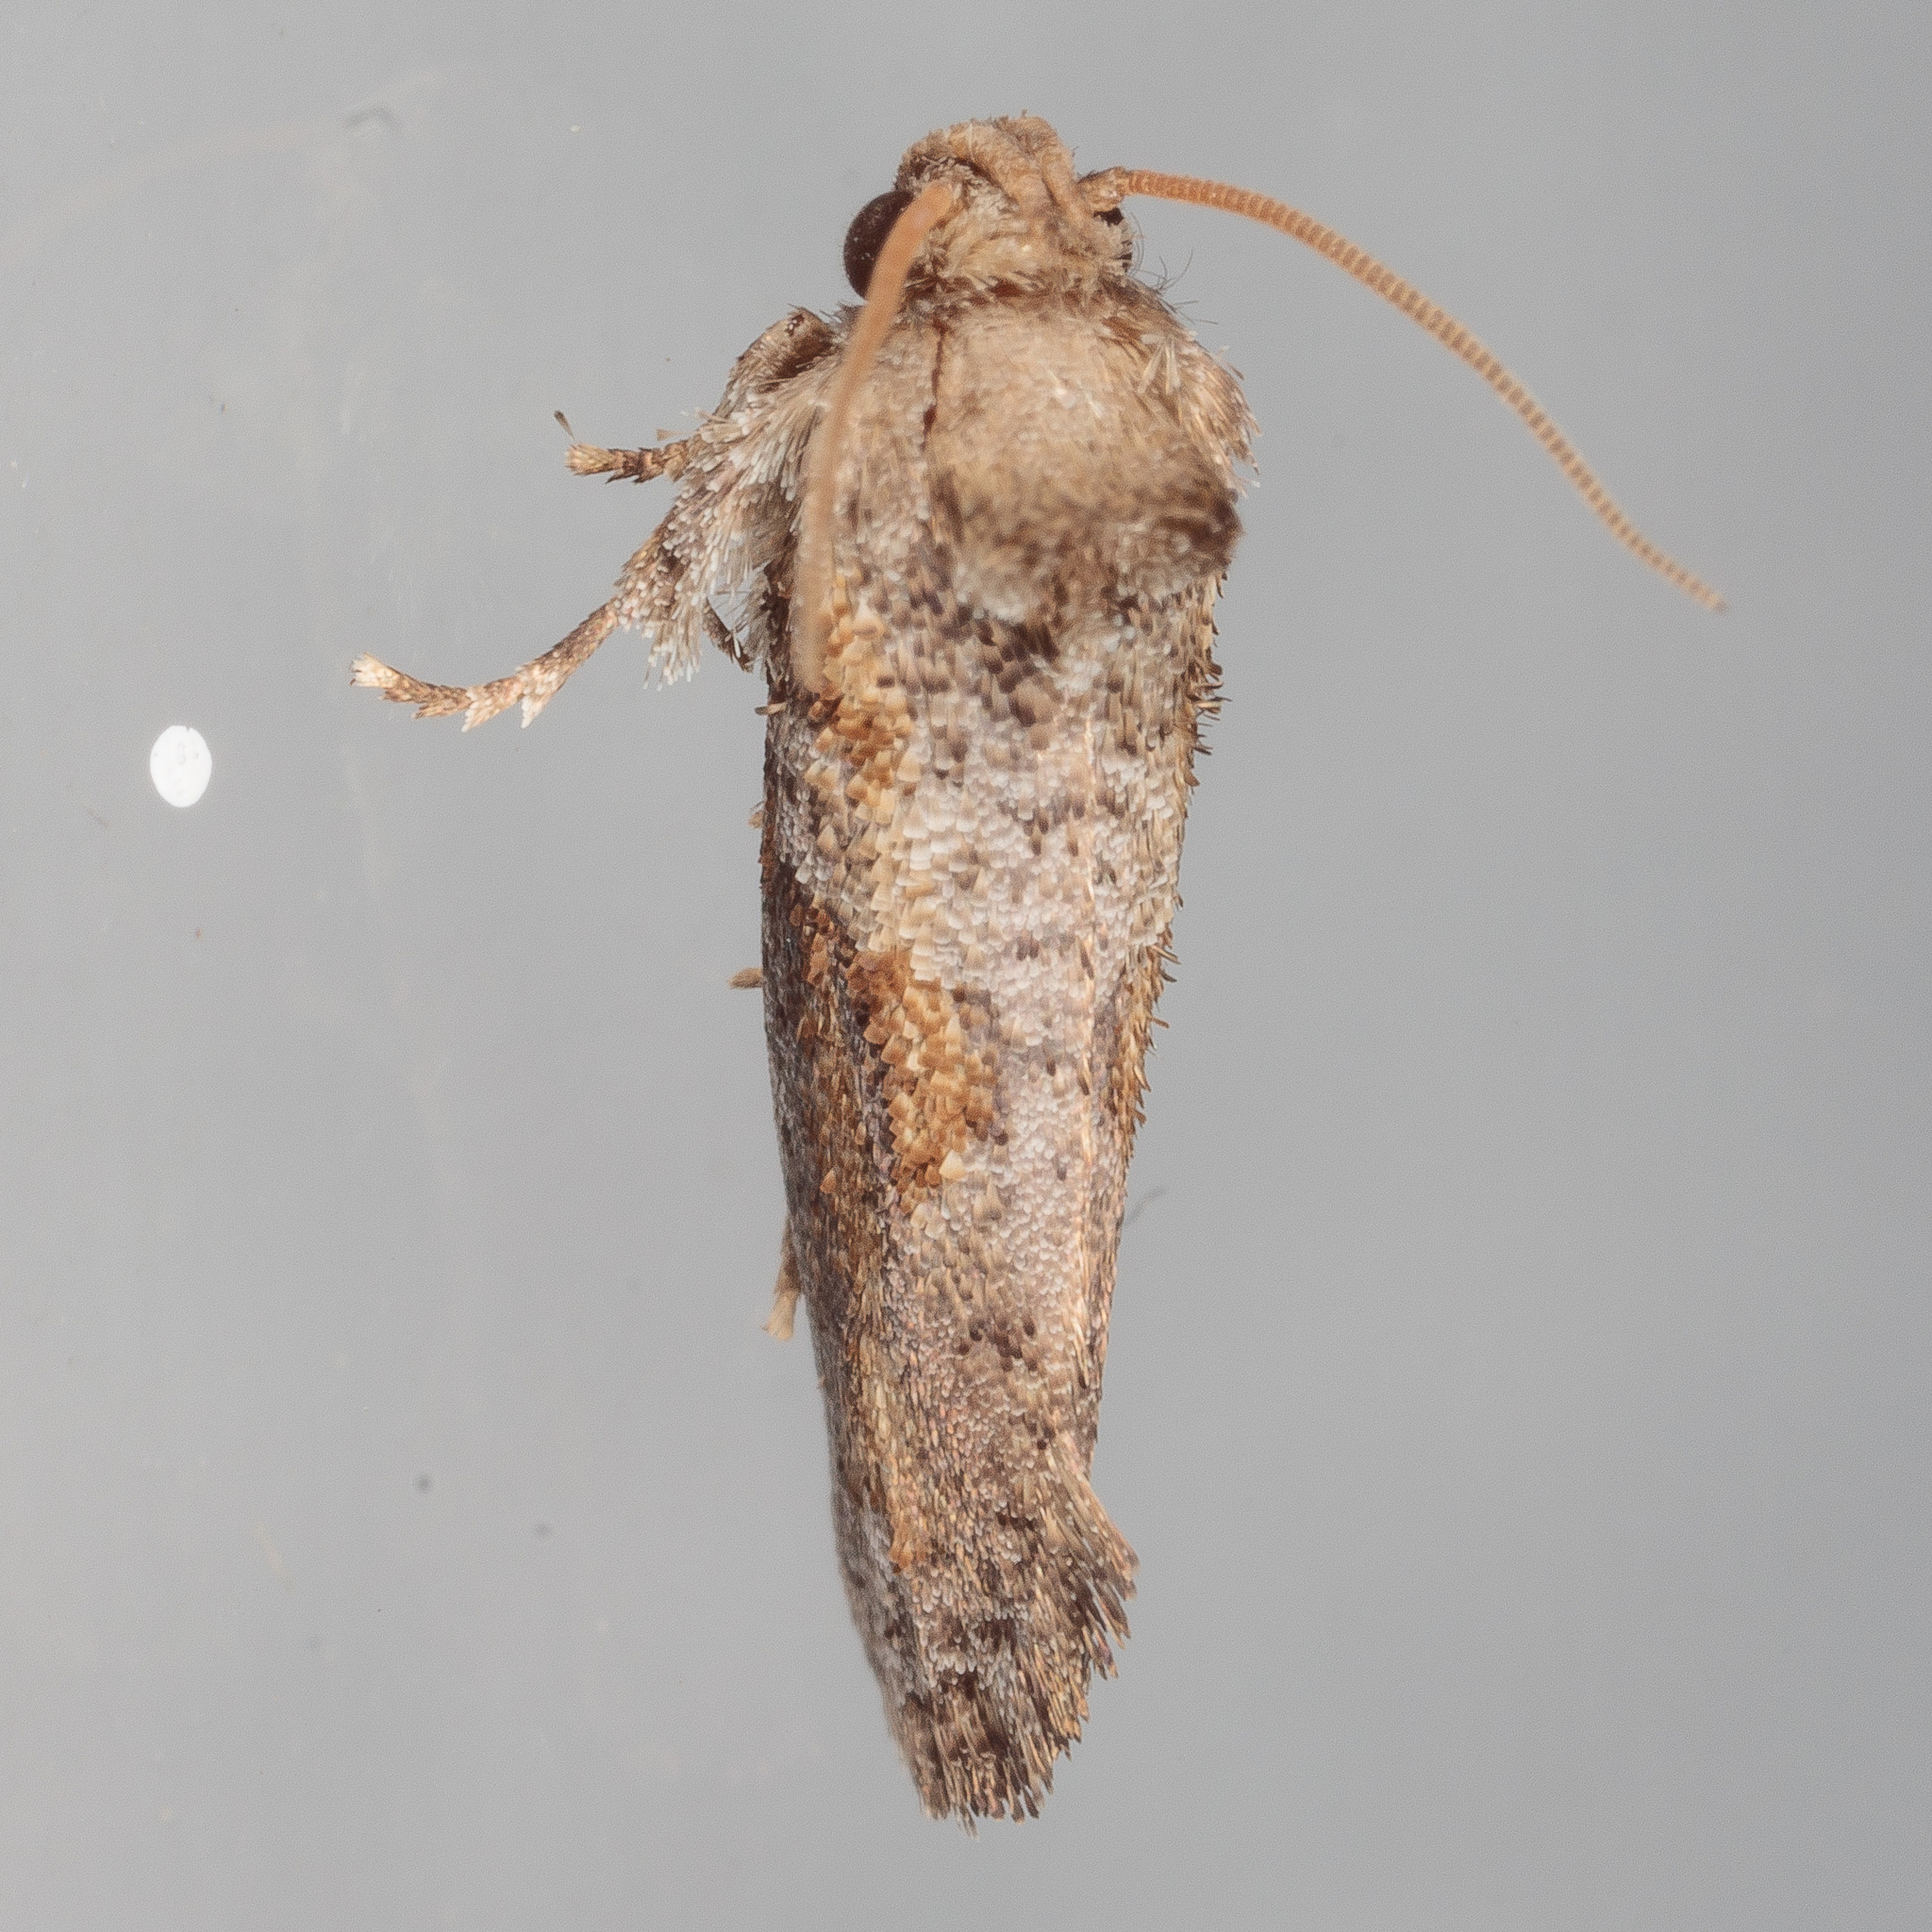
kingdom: Animalia
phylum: Arthropoda
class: Insecta
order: Lepidoptera
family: Tineidae
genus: Acrolophus
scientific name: Acrolophus piger
